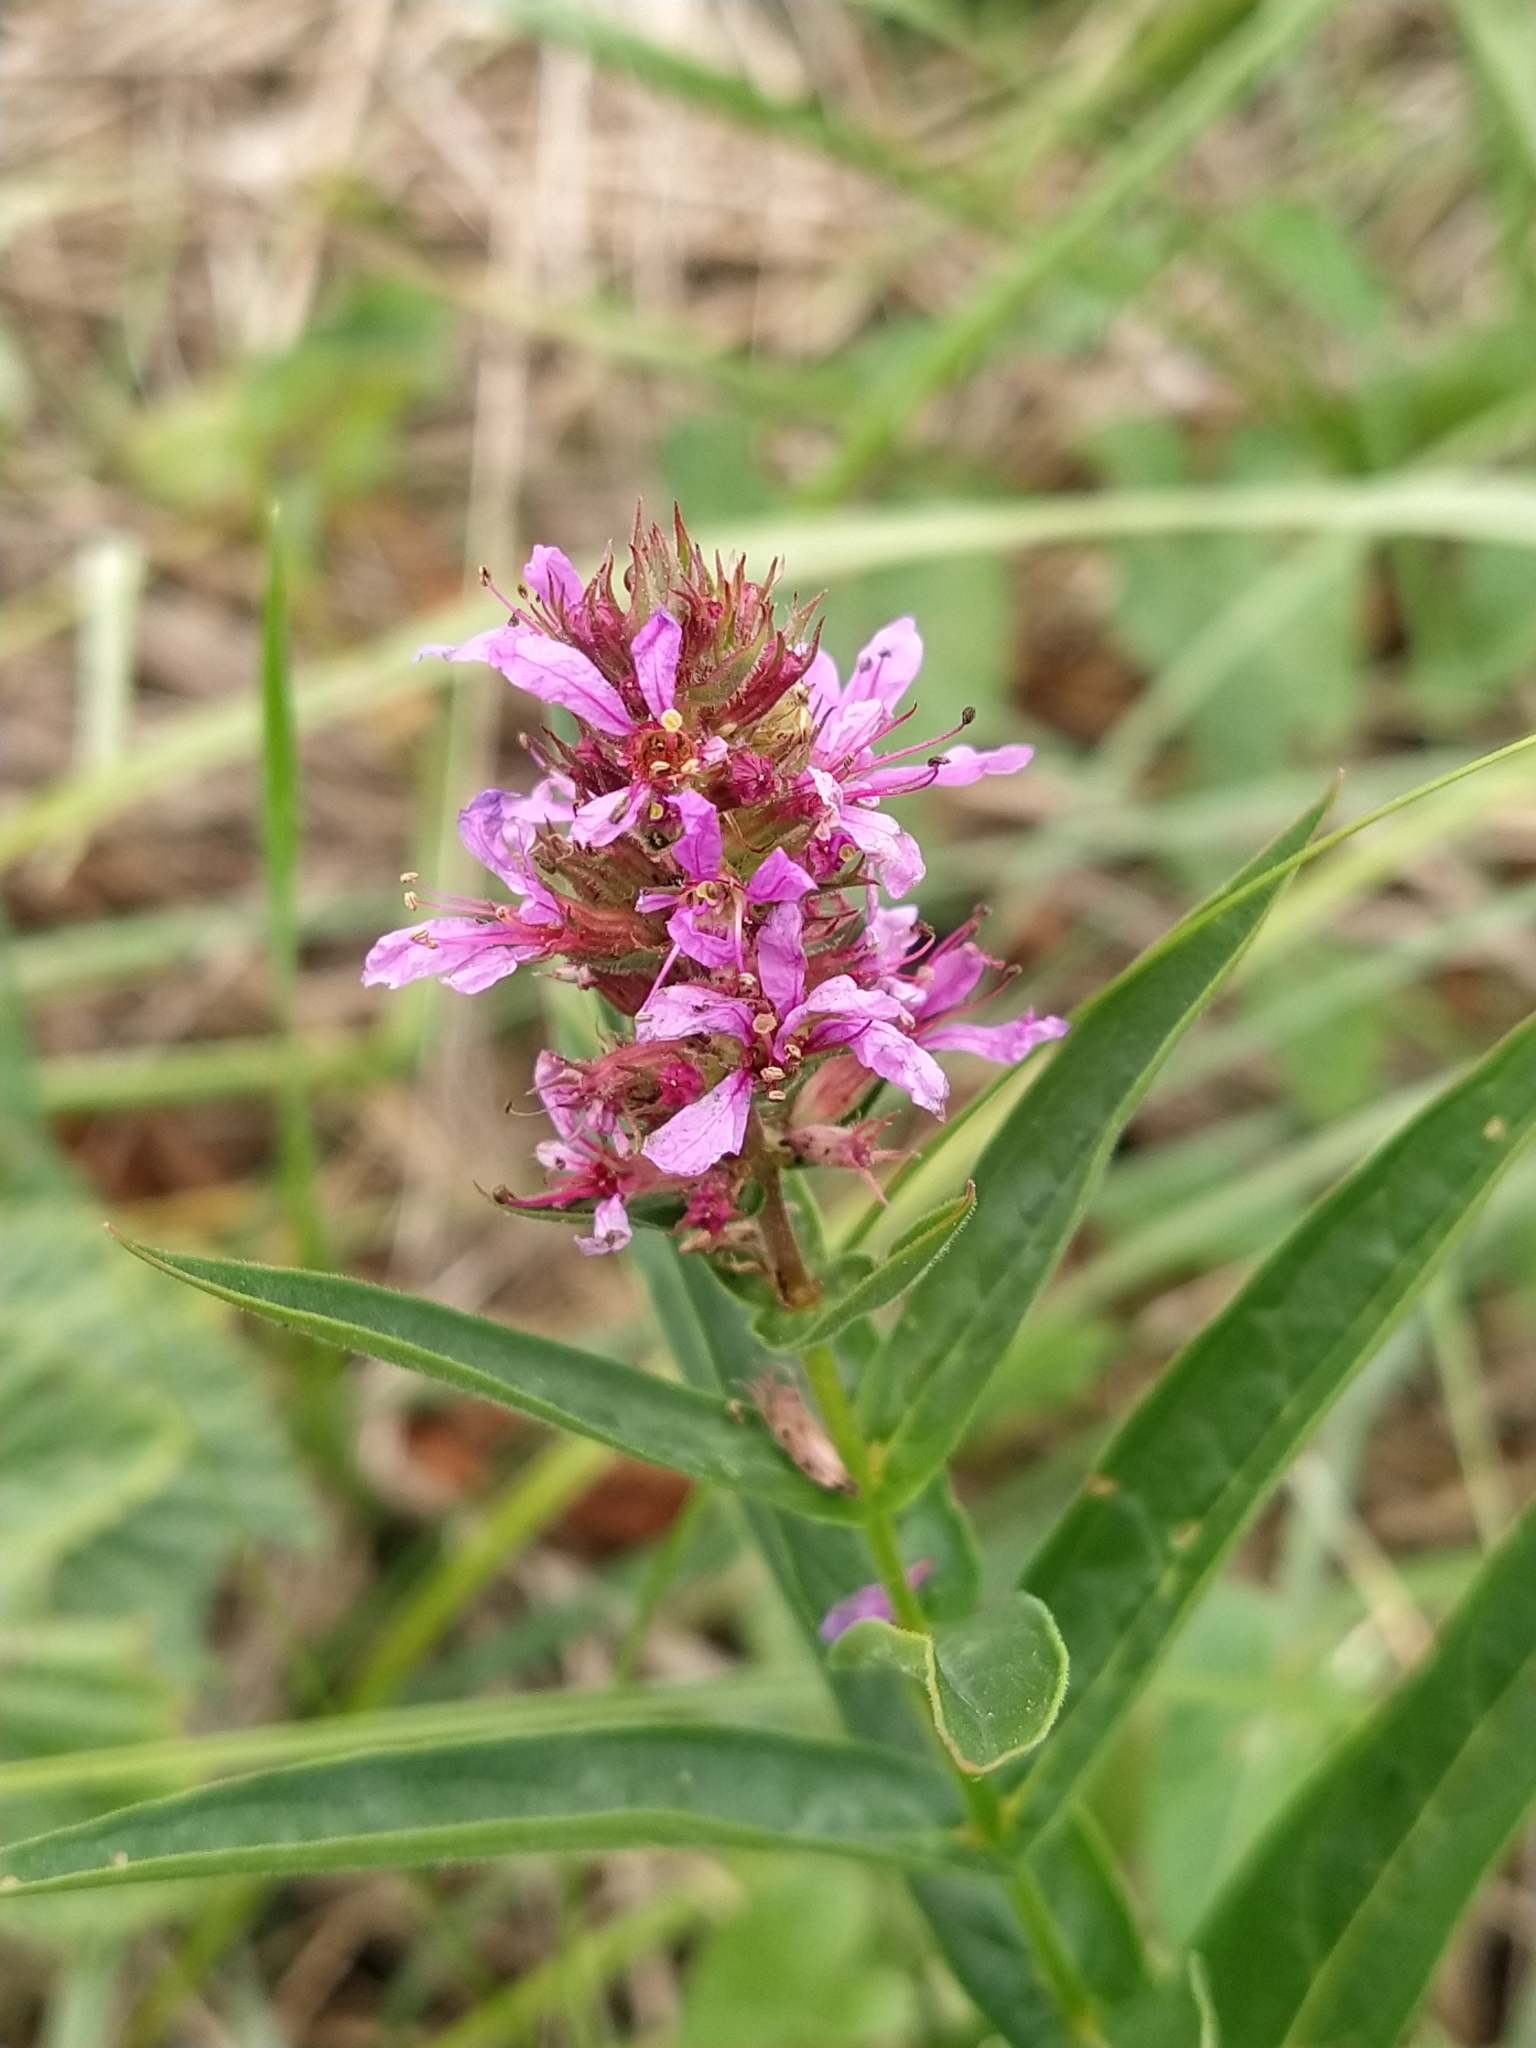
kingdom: Plantae
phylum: Tracheophyta
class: Magnoliopsida
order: Myrtales
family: Lythraceae
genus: Lythrum
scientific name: Lythrum salicaria
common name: Purple loosestrife
